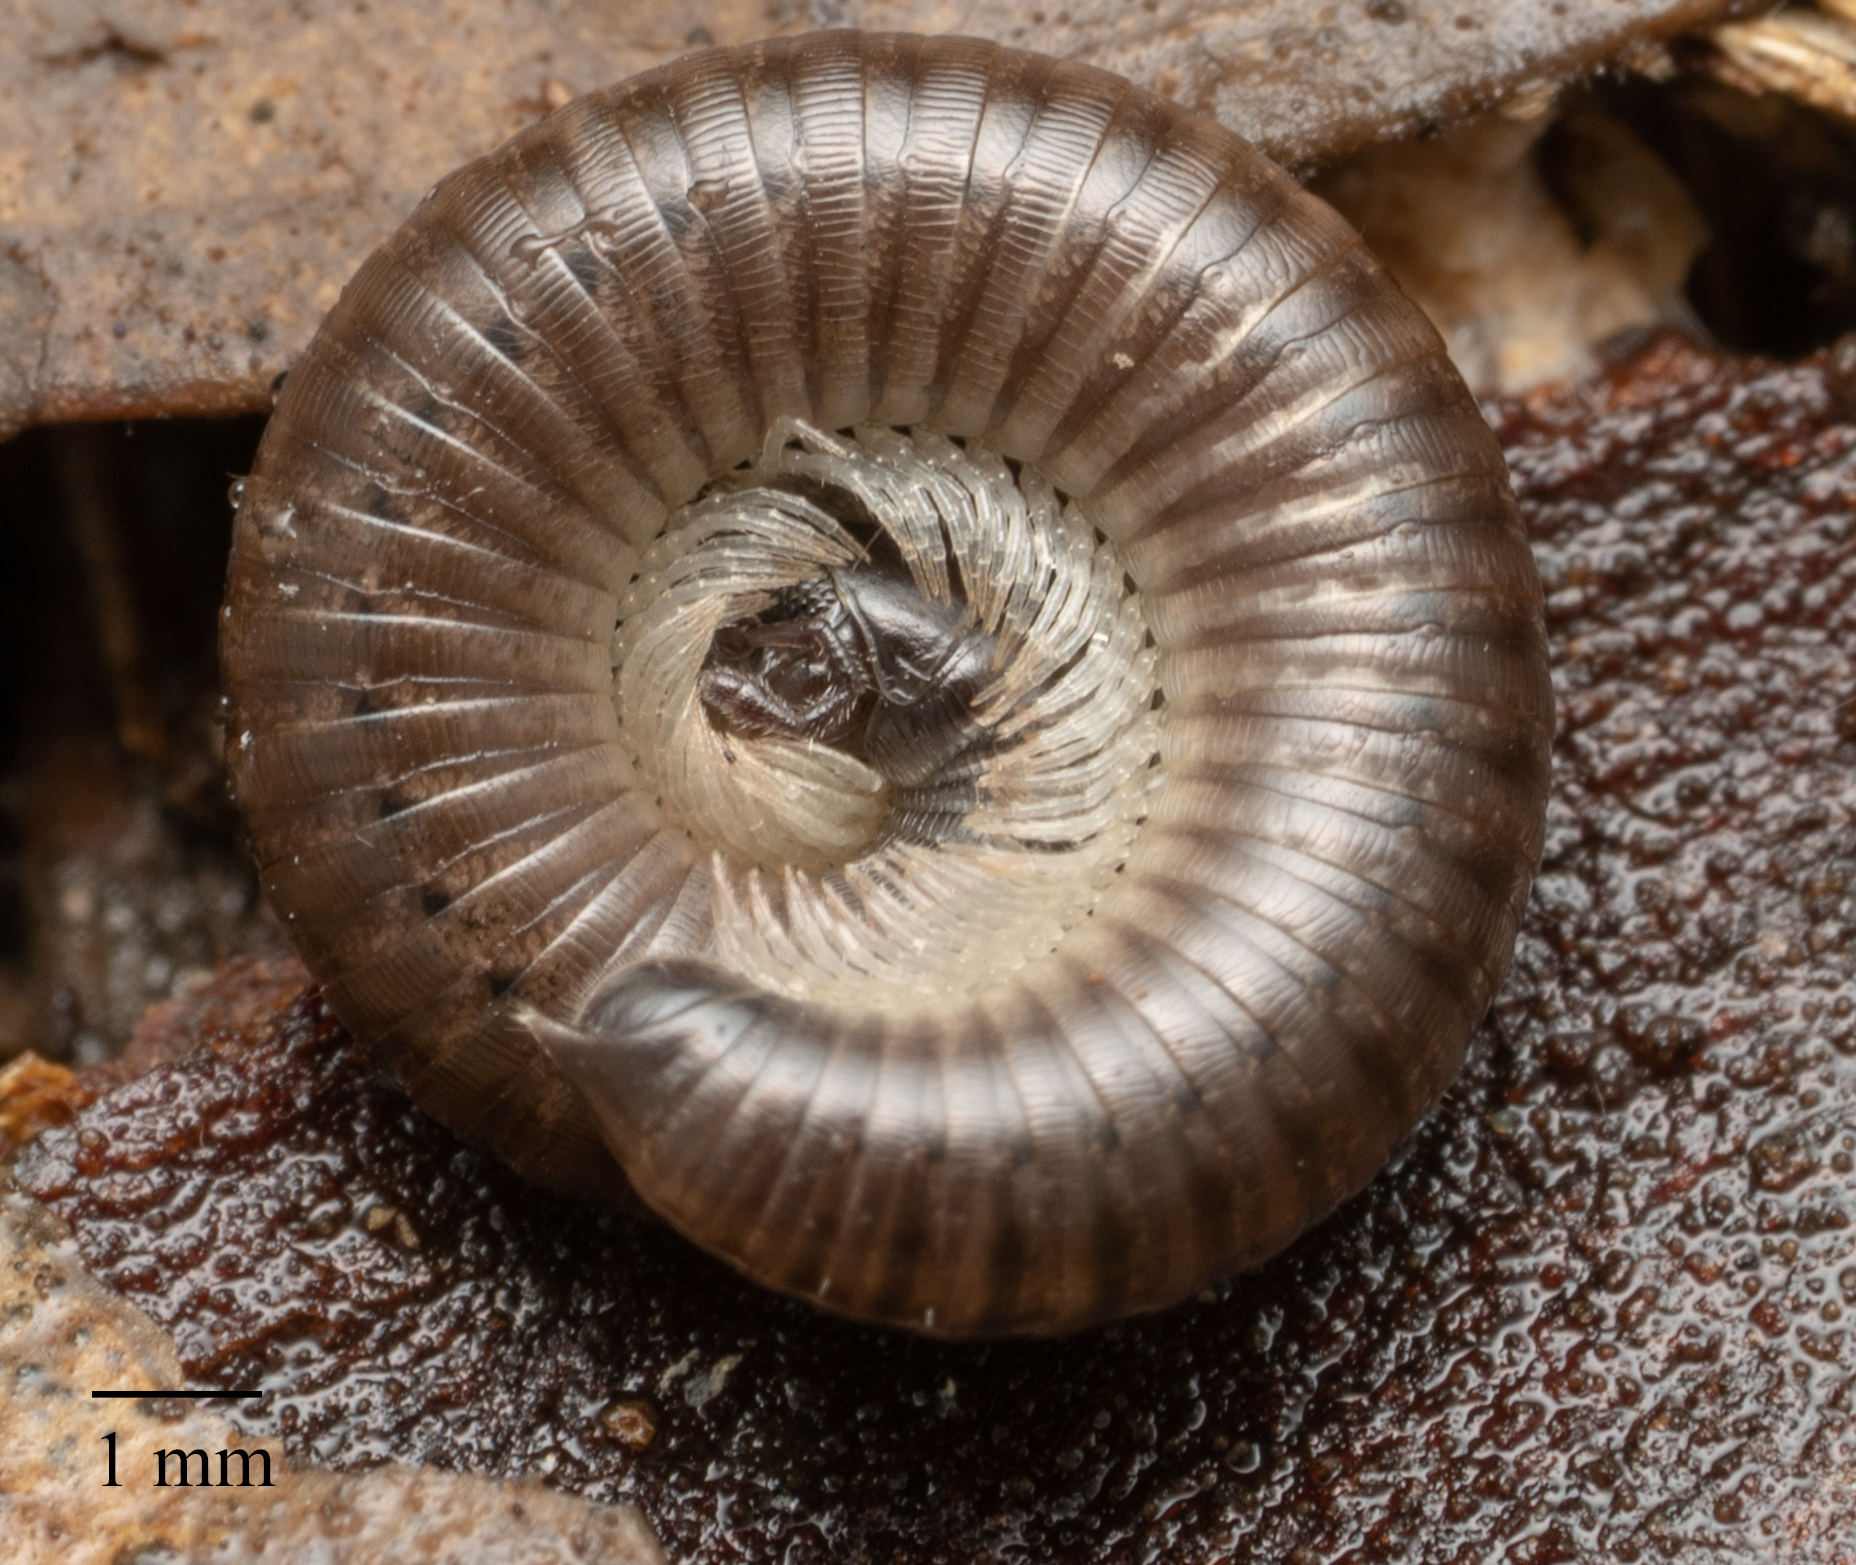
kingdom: Animalia
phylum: Arthropoda
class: Diplopoda
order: Julida
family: Julidae
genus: Ommatoiulus
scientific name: Ommatoiulus moreleti
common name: Portuguese millipede
